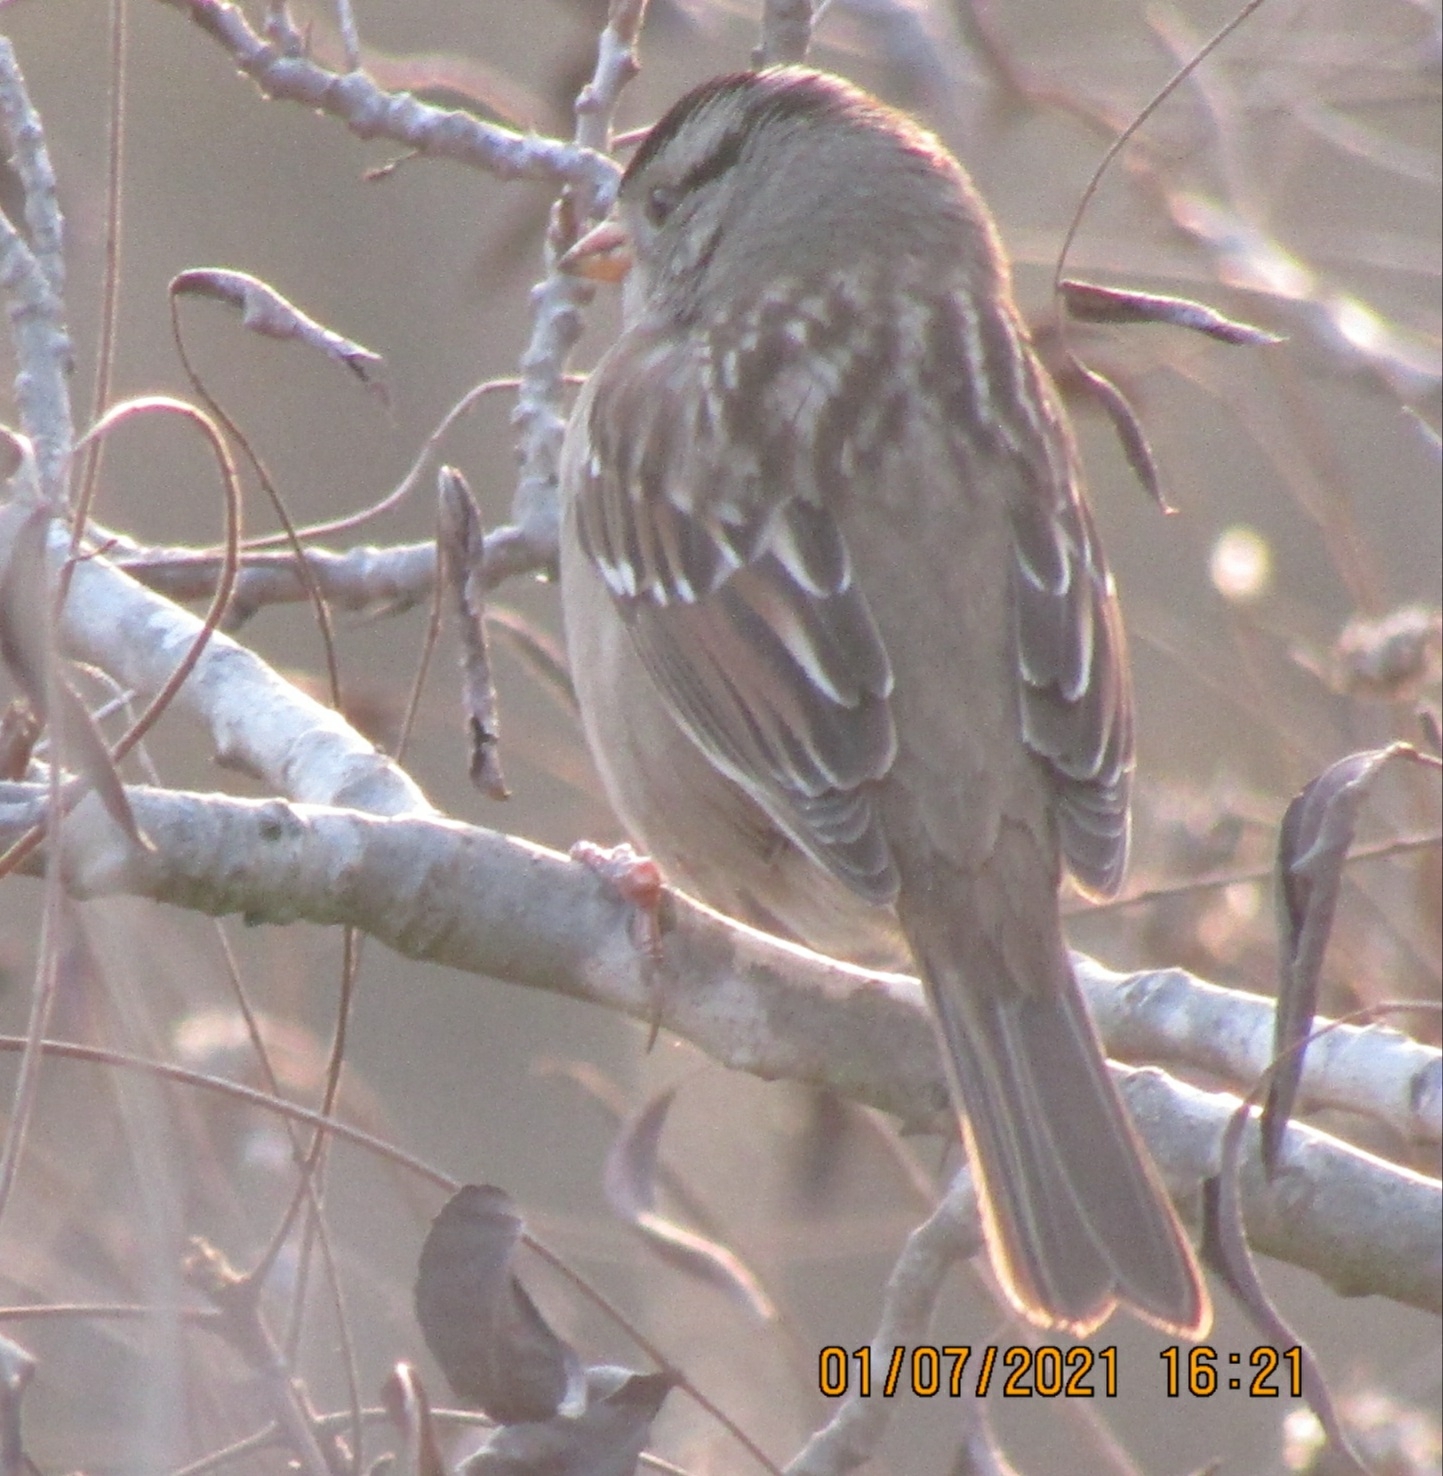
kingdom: Animalia
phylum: Chordata
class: Aves
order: Passeriformes
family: Passerellidae
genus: Zonotrichia
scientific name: Zonotrichia leucophrys
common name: White-crowned sparrow
